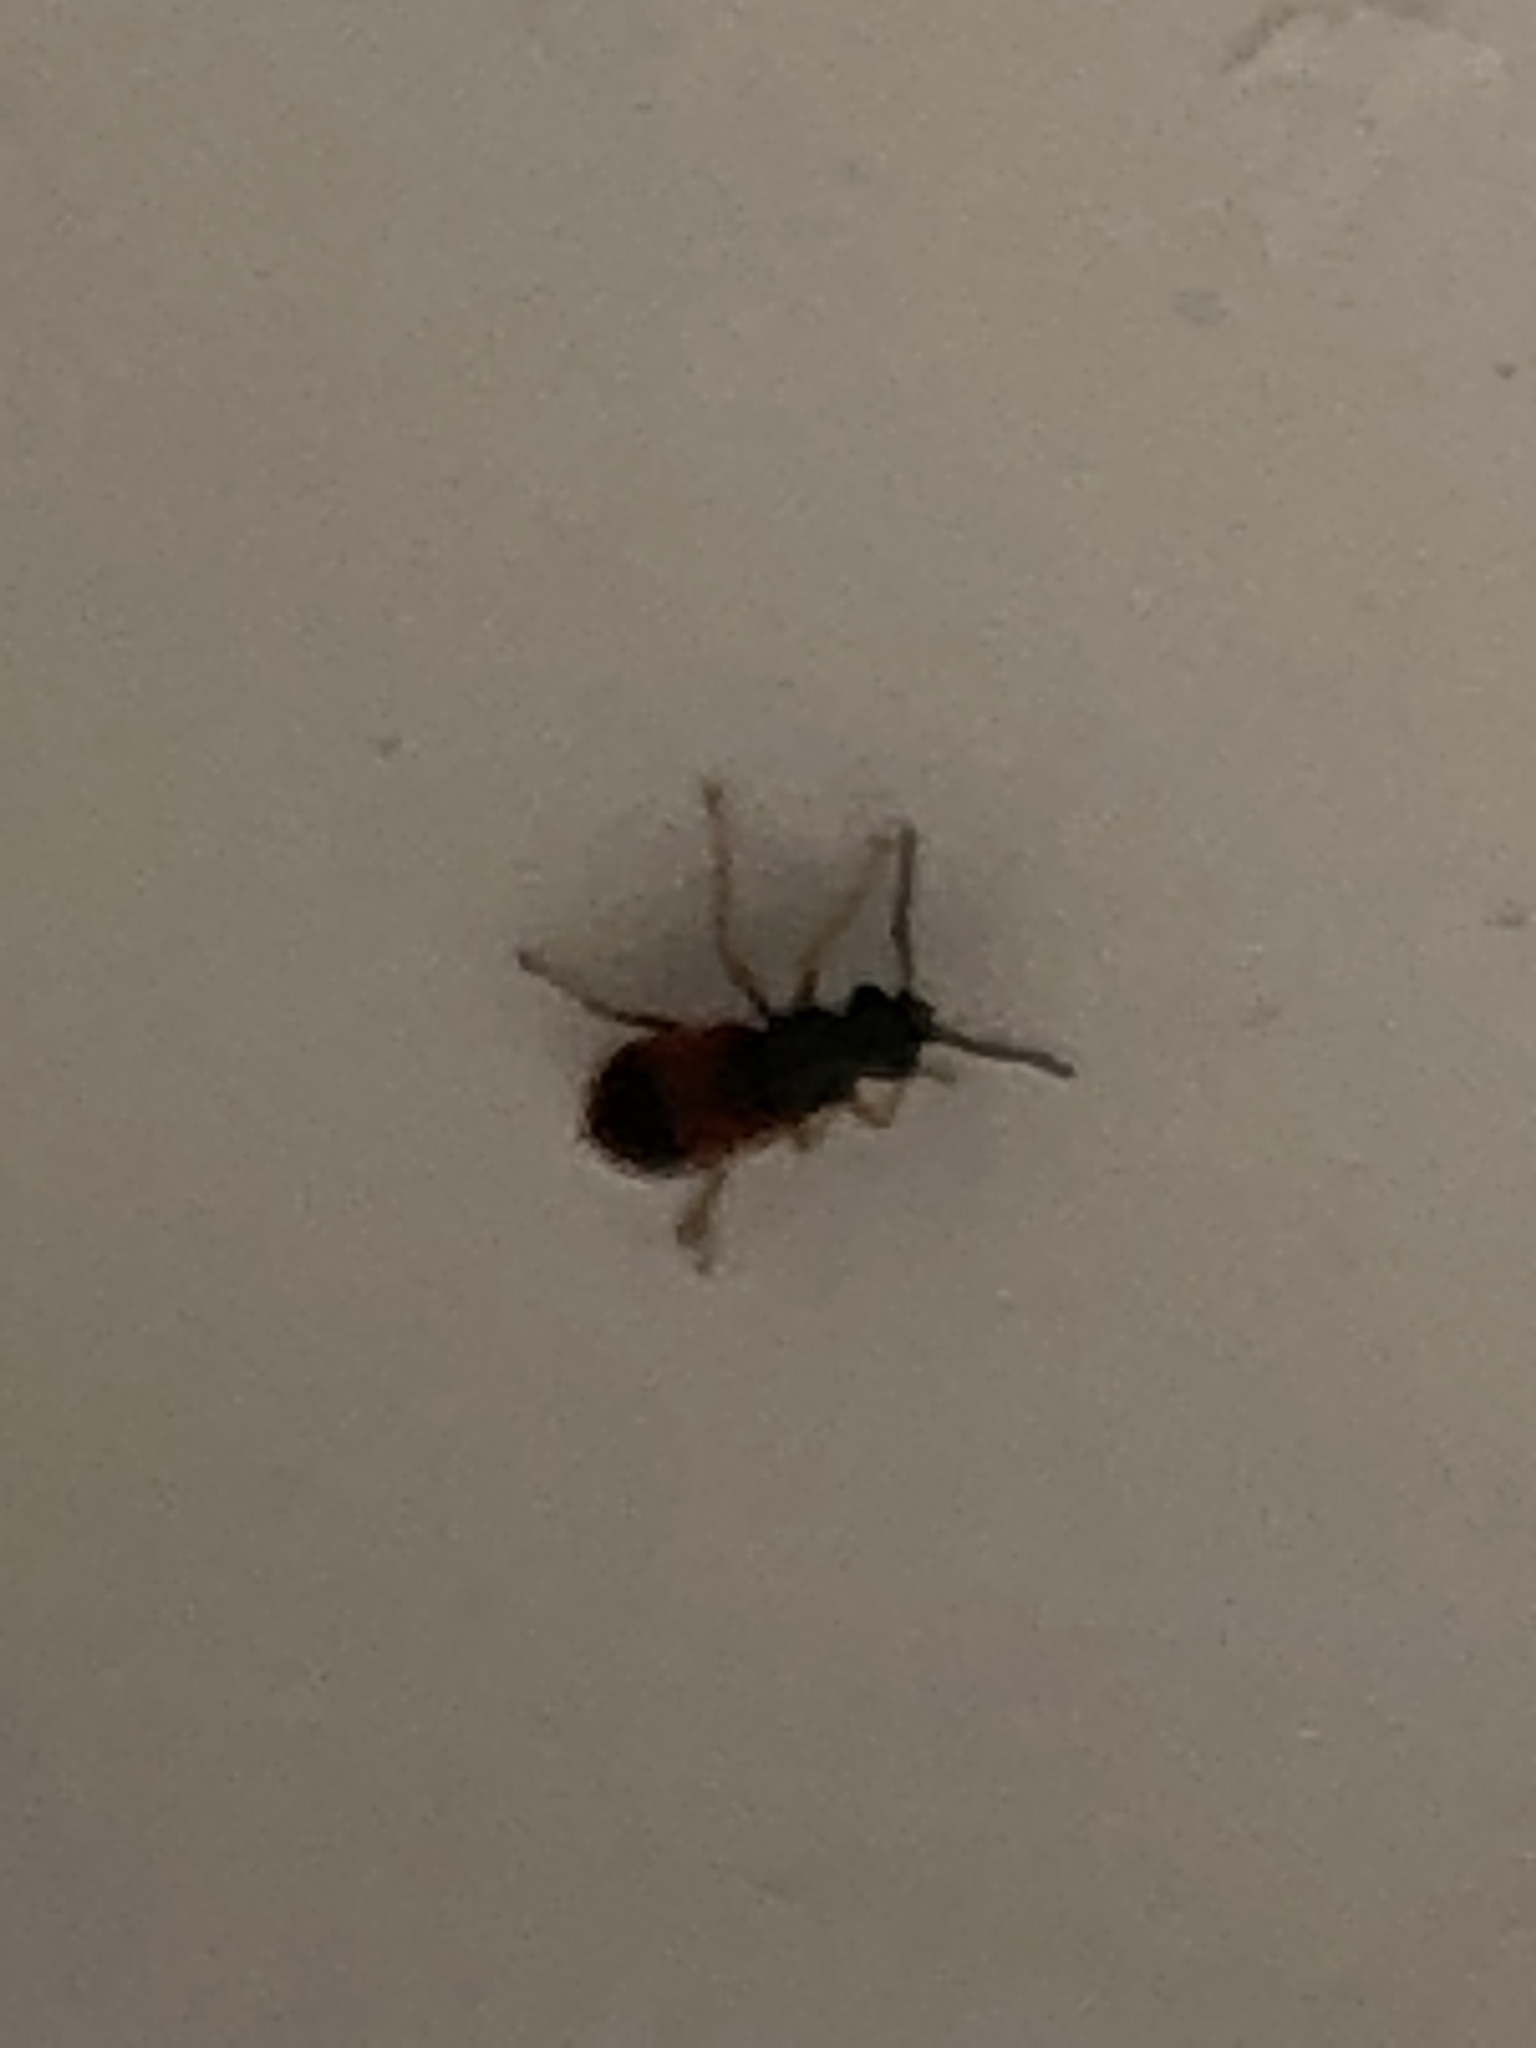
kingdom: Animalia
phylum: Arthropoda
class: Insecta
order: Coleoptera
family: Melyridae
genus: Anthocomus
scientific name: Anthocomus equestris
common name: Black-banded soft-winged flower beetle
